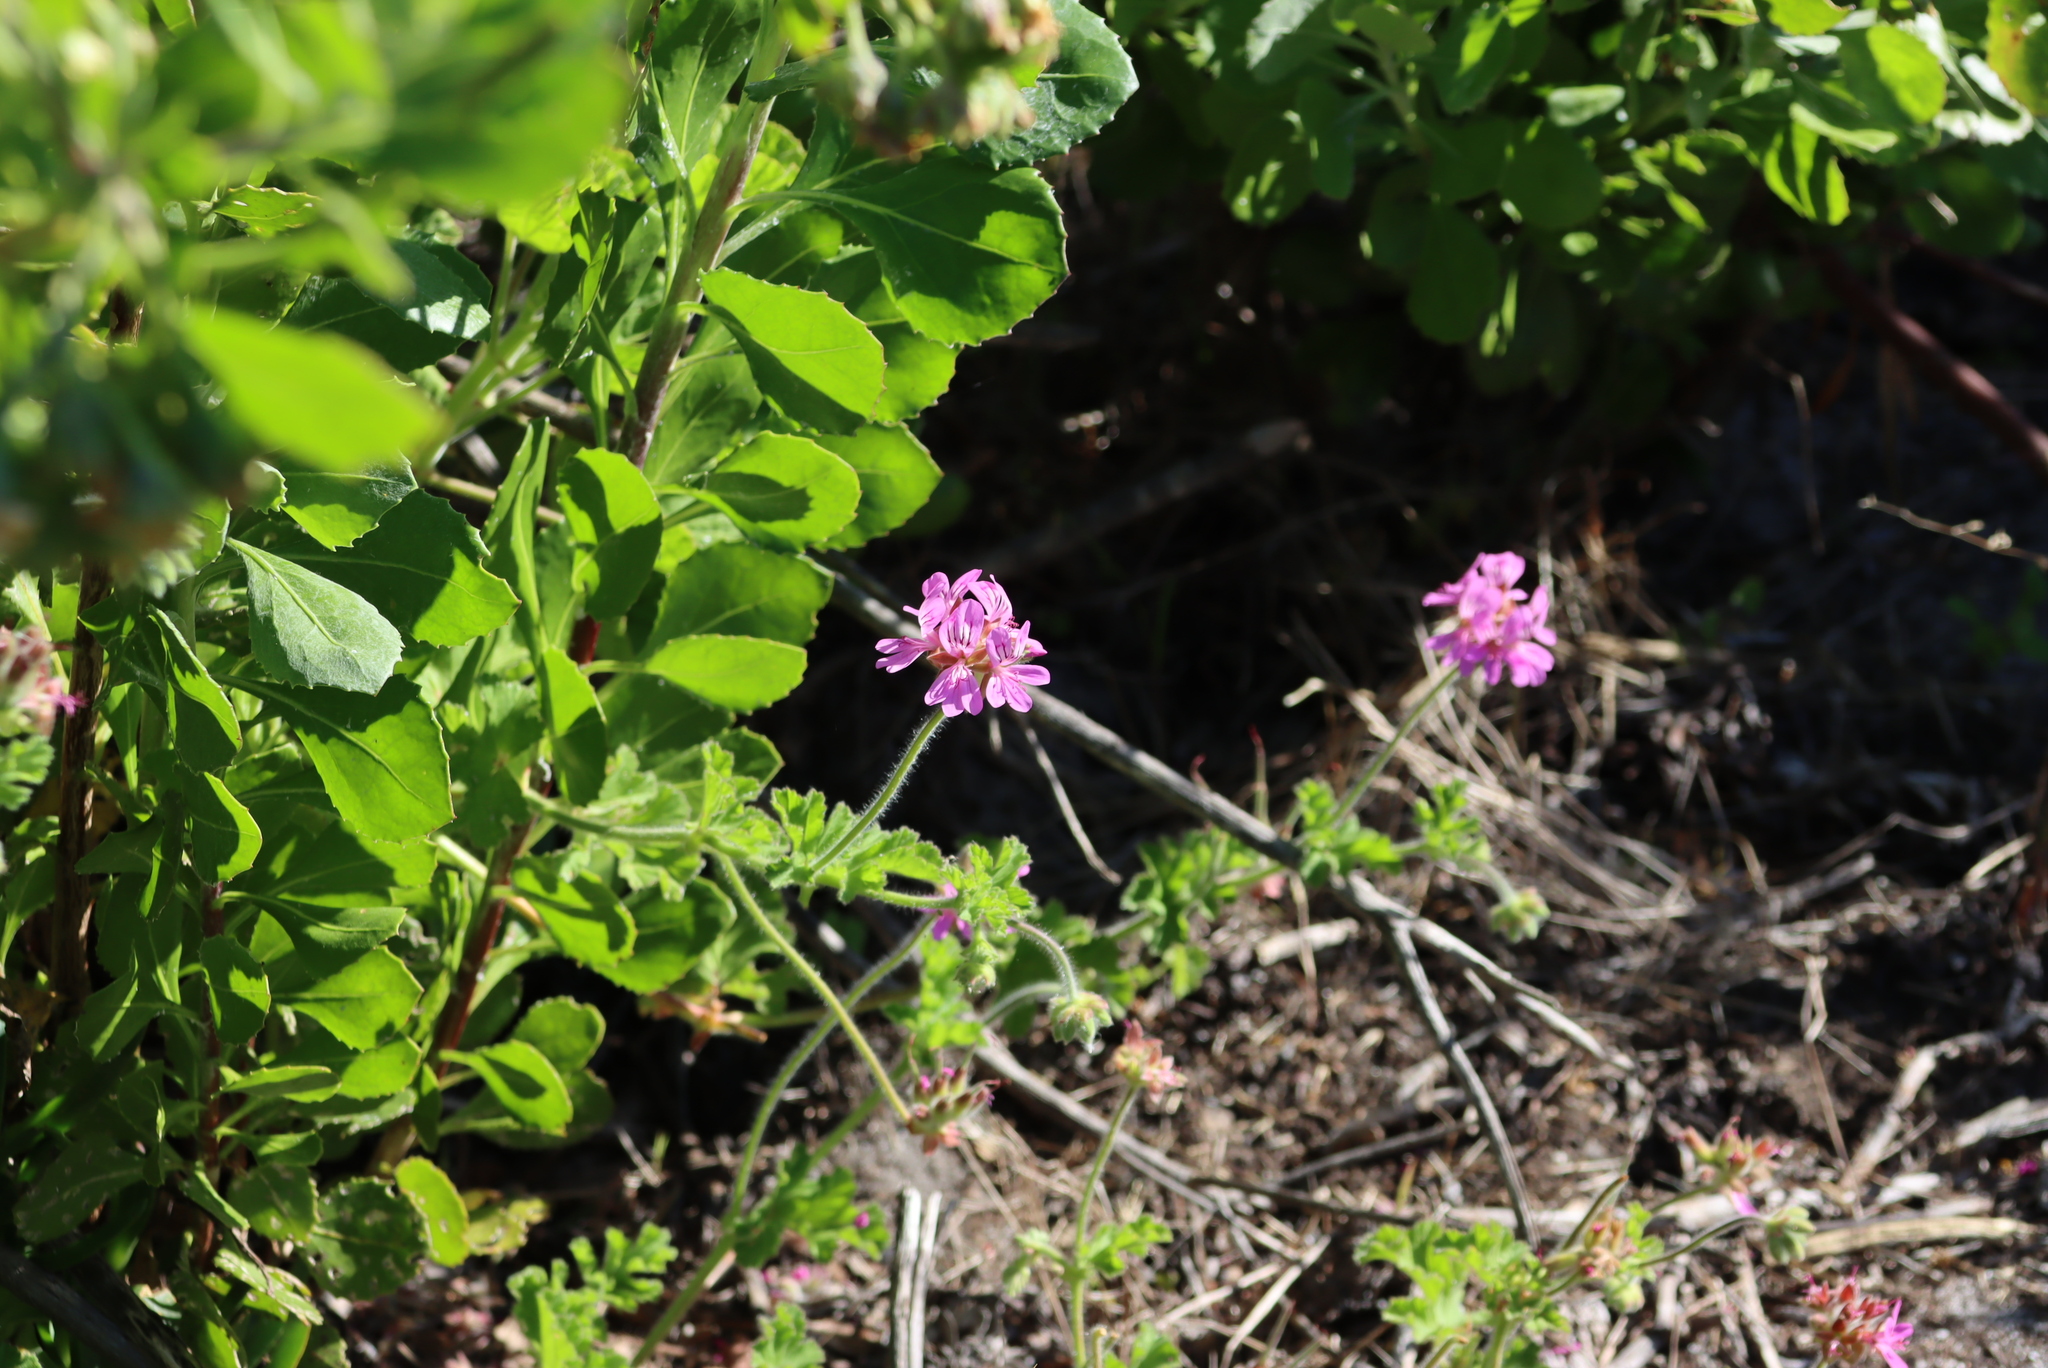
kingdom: Plantae
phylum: Tracheophyta
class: Magnoliopsida
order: Geraniales
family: Geraniaceae
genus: Pelargonium
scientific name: Pelargonium capitatum
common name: Rose scented geranium
